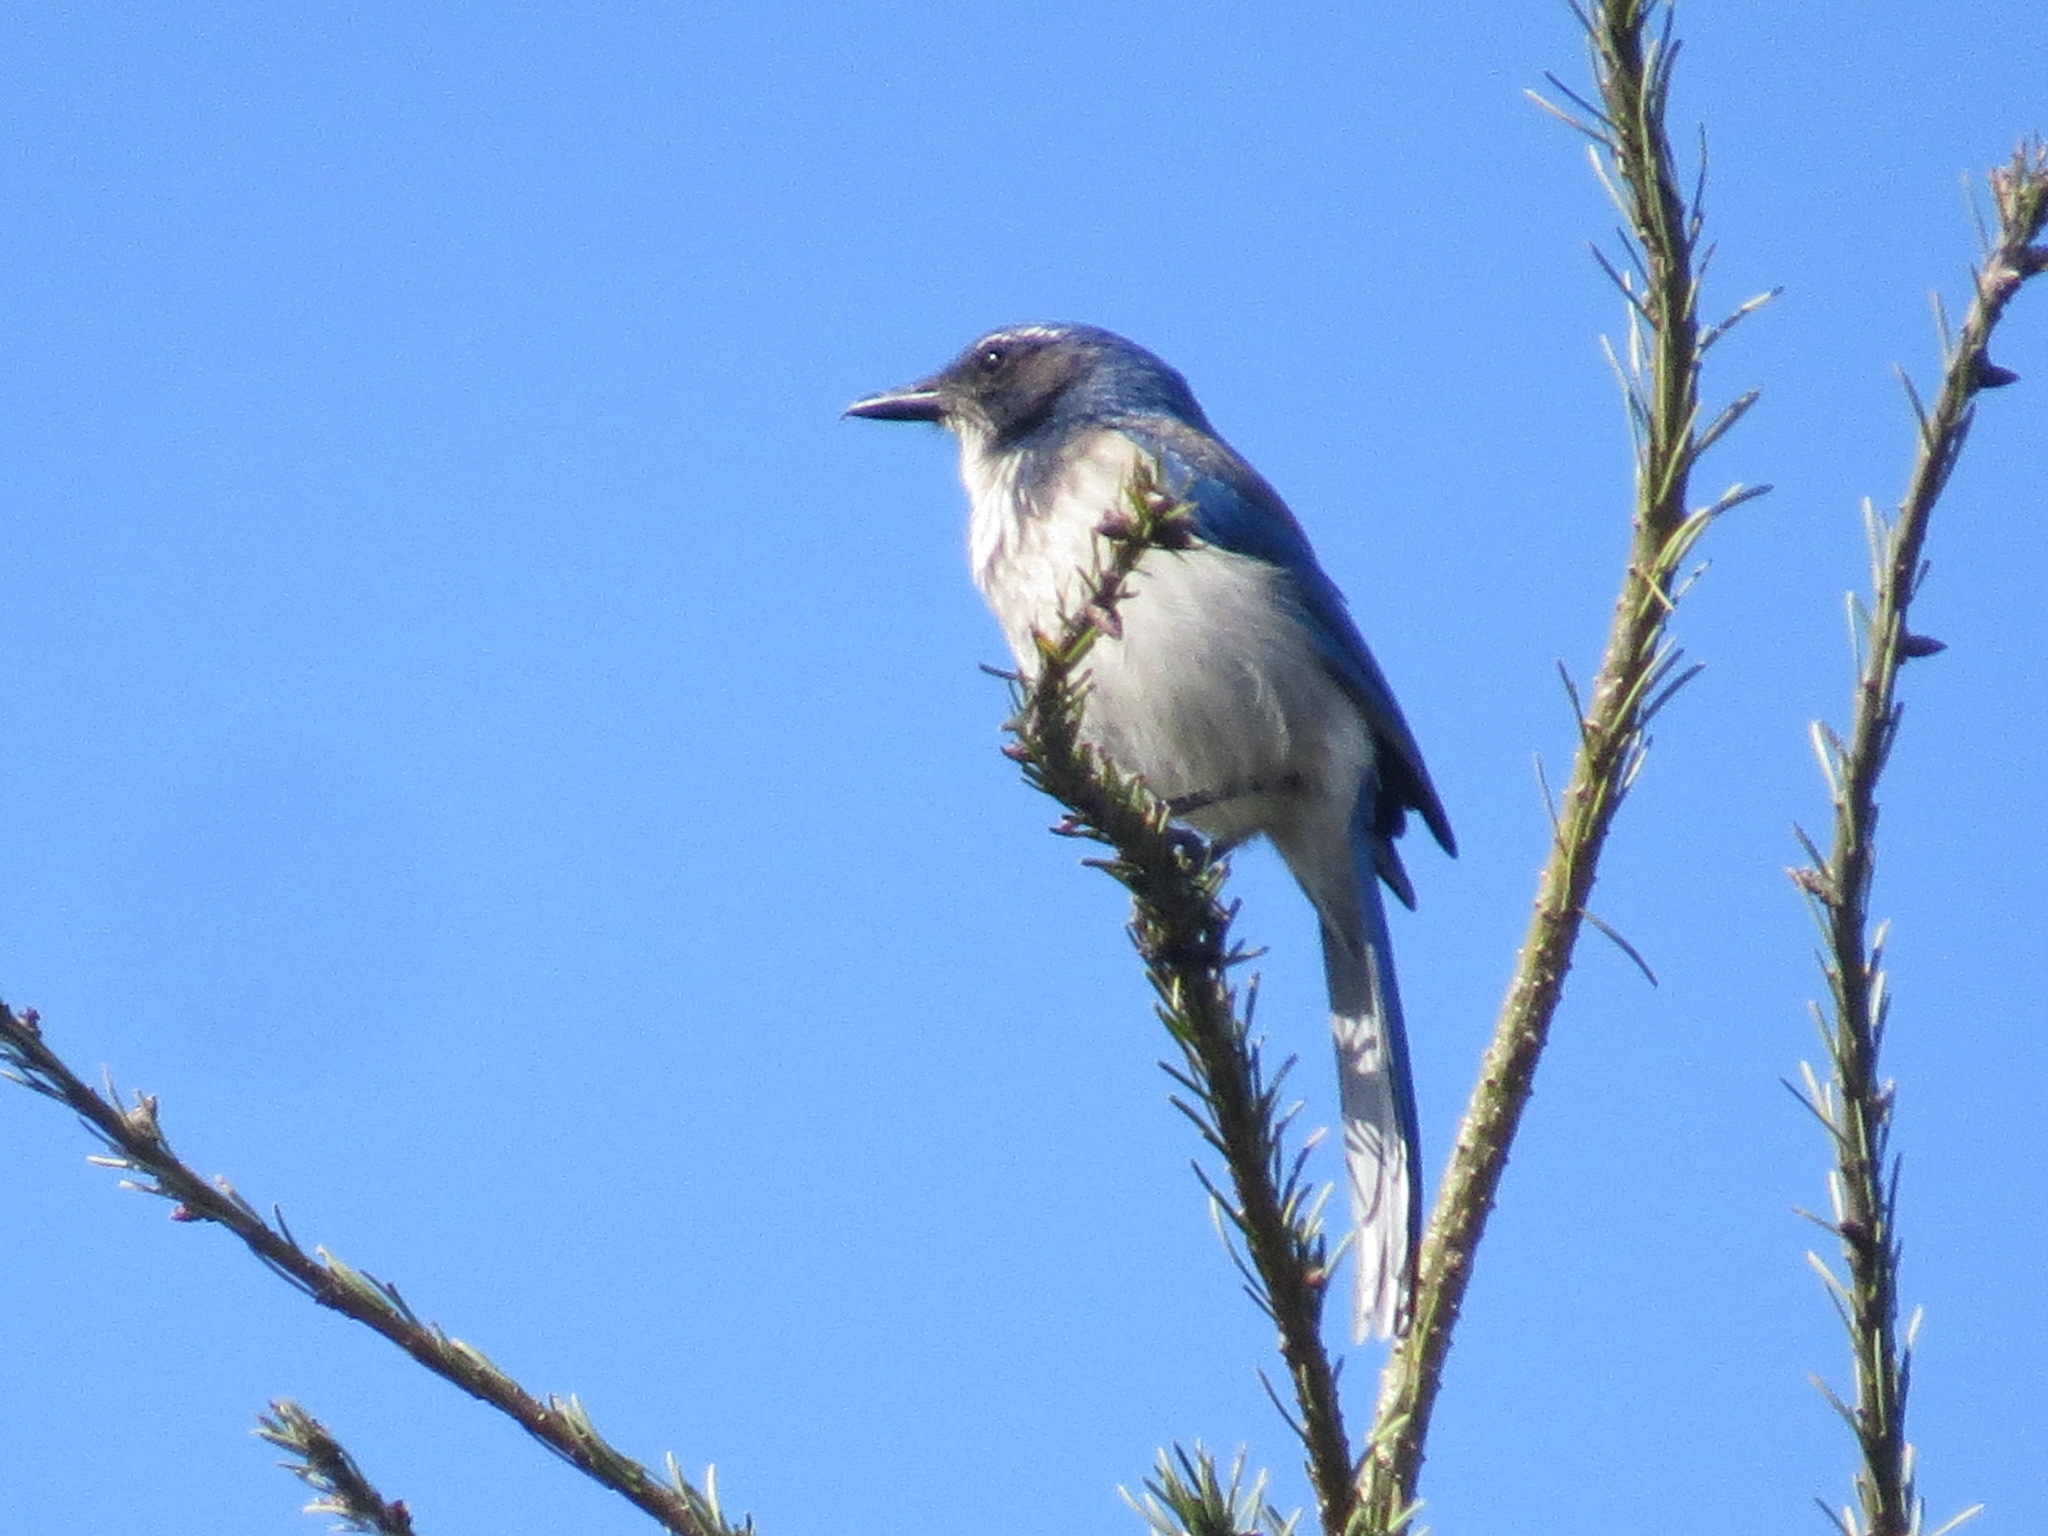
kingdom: Animalia
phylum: Chordata
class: Aves
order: Passeriformes
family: Corvidae
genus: Aphelocoma
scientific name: Aphelocoma californica
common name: California scrub-jay
